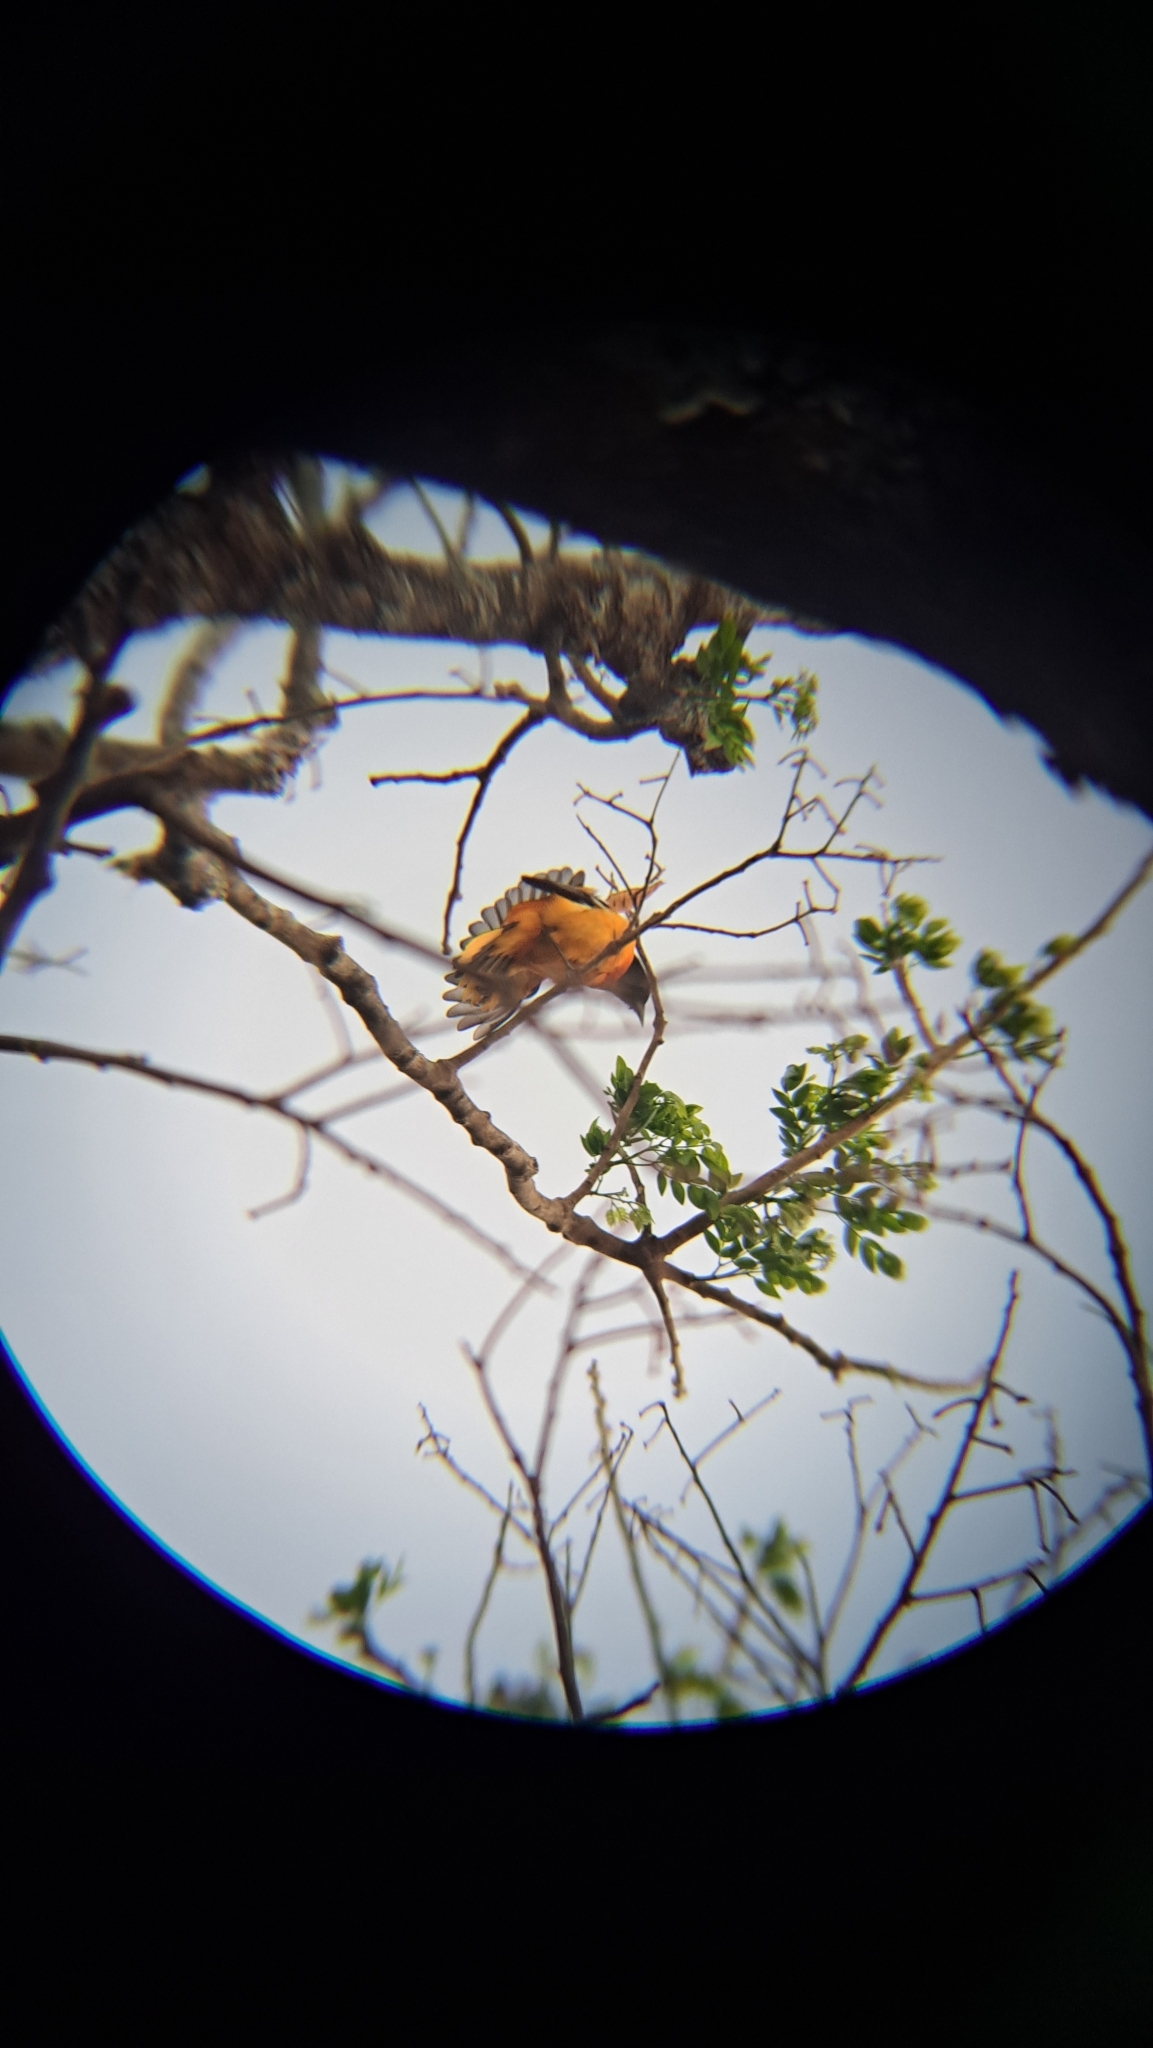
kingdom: Animalia
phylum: Chordata
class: Aves
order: Passeriformes
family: Icteridae
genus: Icterus
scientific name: Icterus galbula
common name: Baltimore oriole
